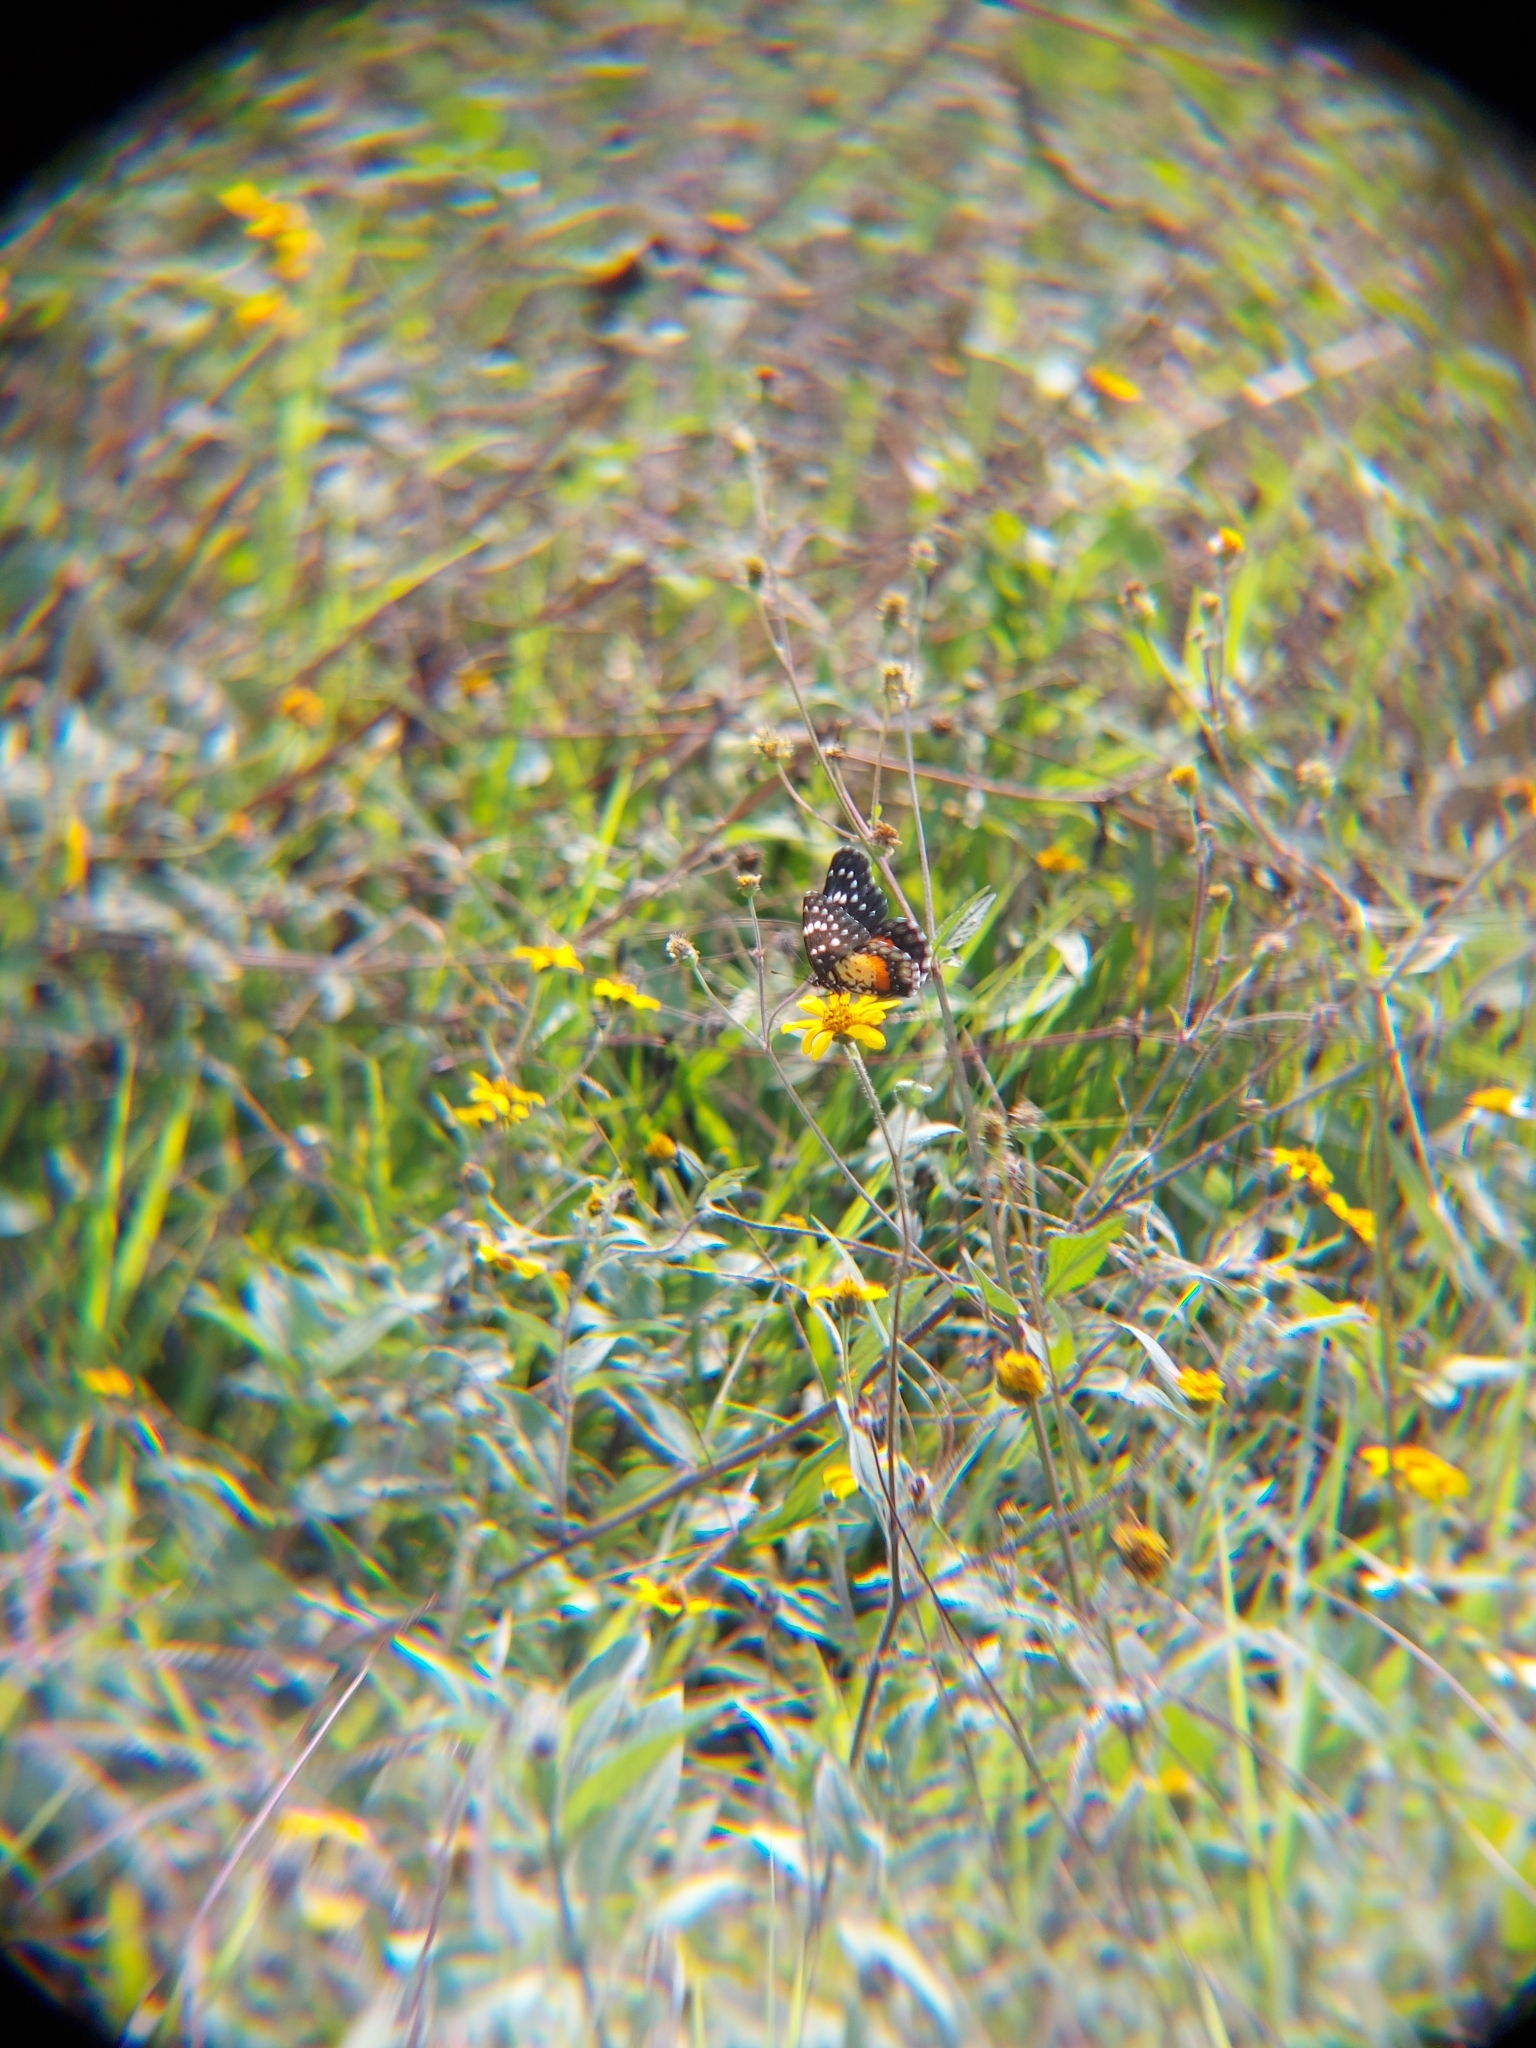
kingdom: Animalia
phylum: Arthropoda
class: Insecta
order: Lepidoptera
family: Nymphalidae
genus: Chlosyne
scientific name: Chlosyne janais
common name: Crimson patch
